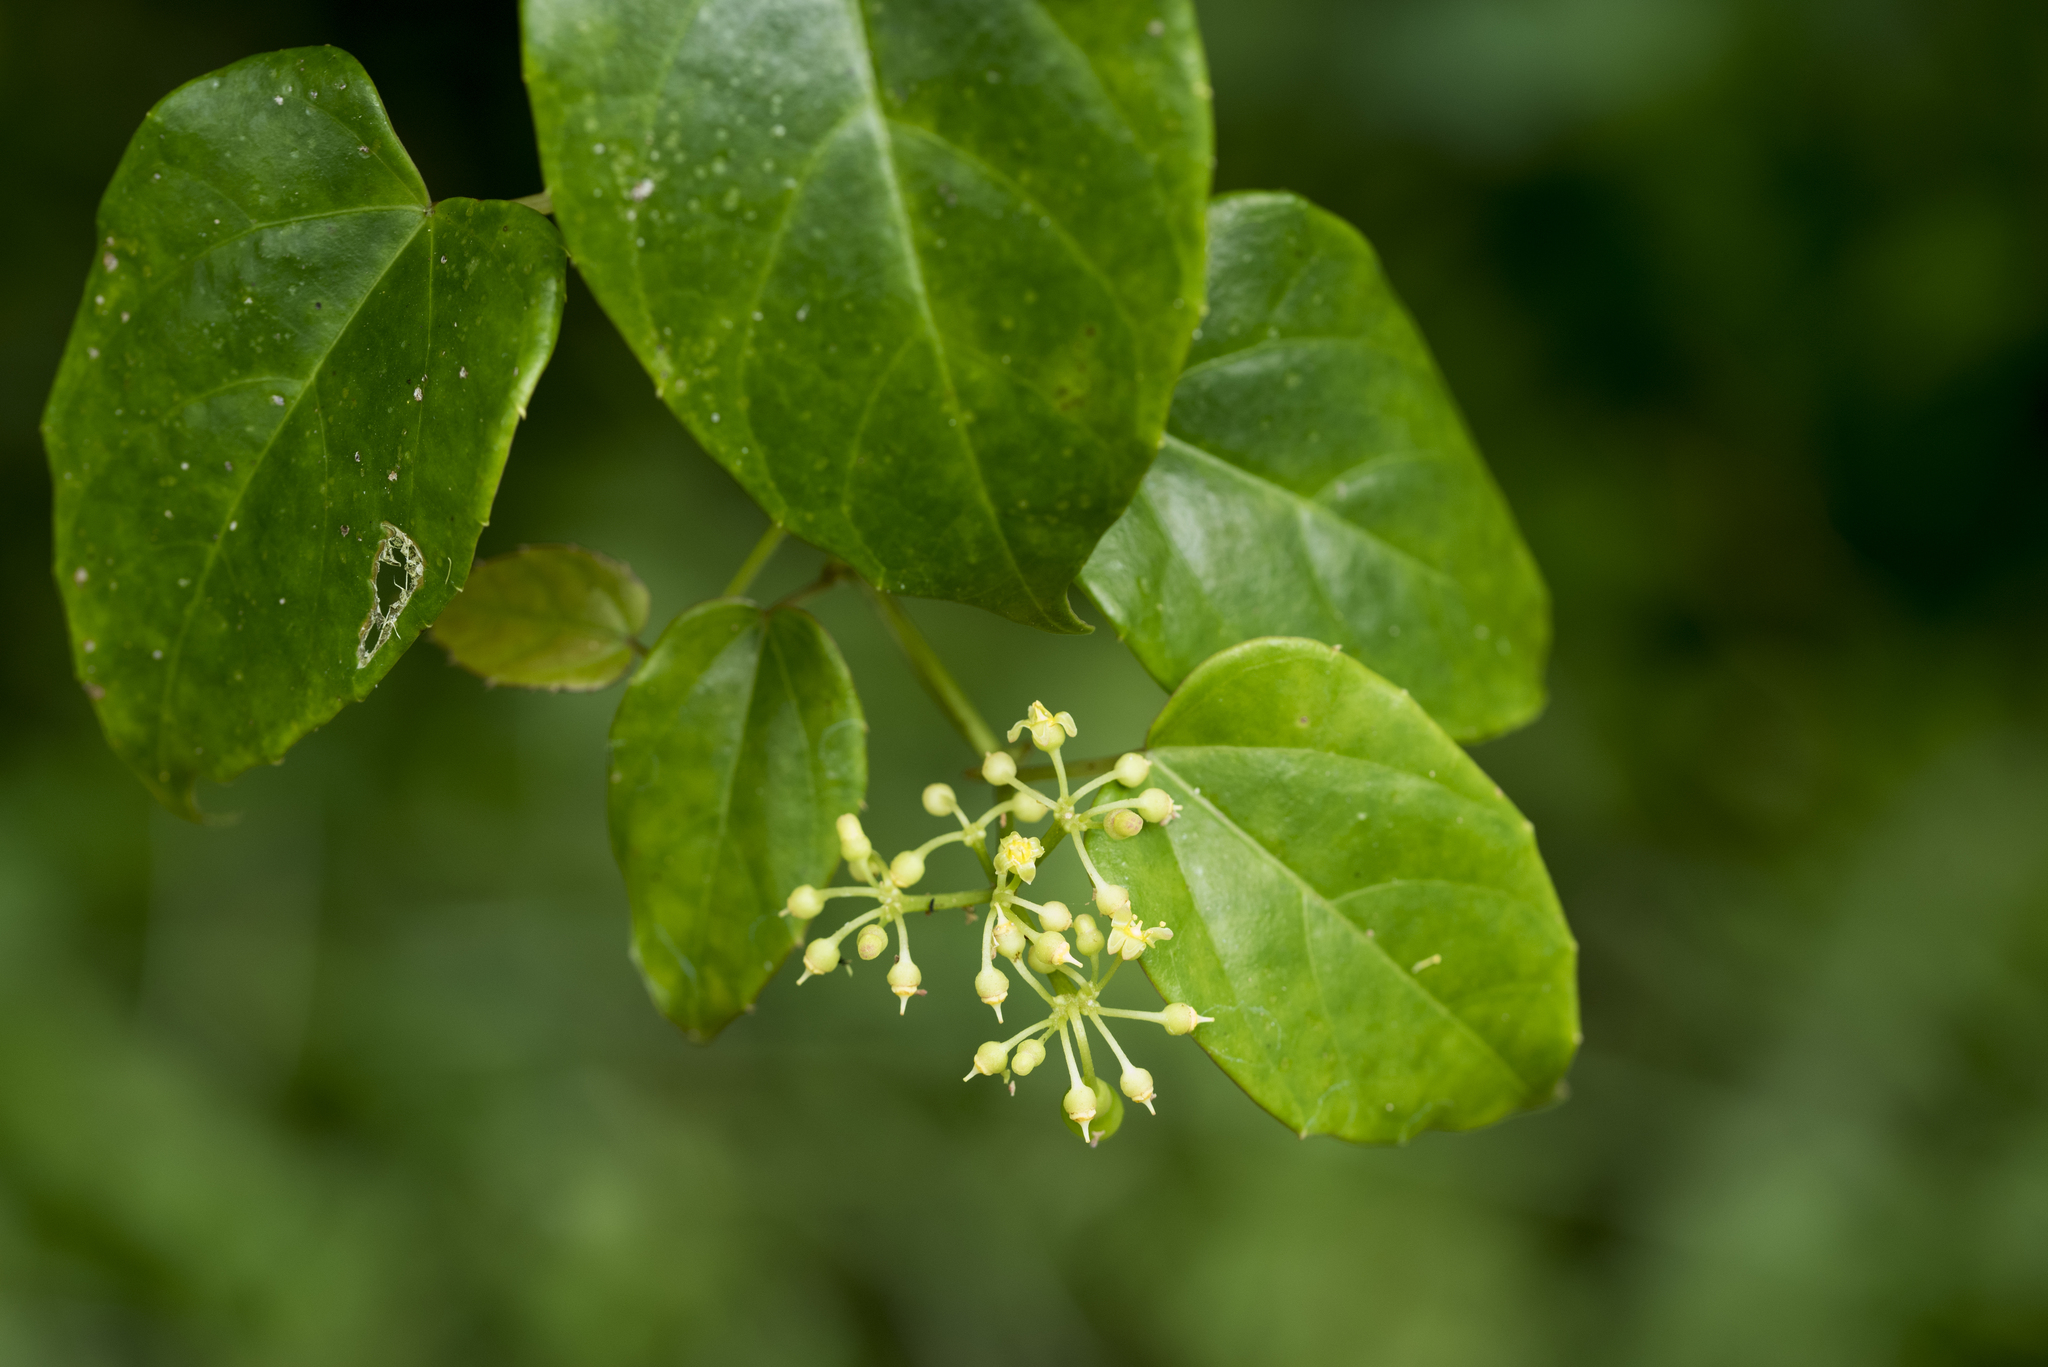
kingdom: Plantae
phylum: Tracheophyta
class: Magnoliopsida
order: Vitales
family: Vitaceae
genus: Cissus
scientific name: Cissus pteroclada
